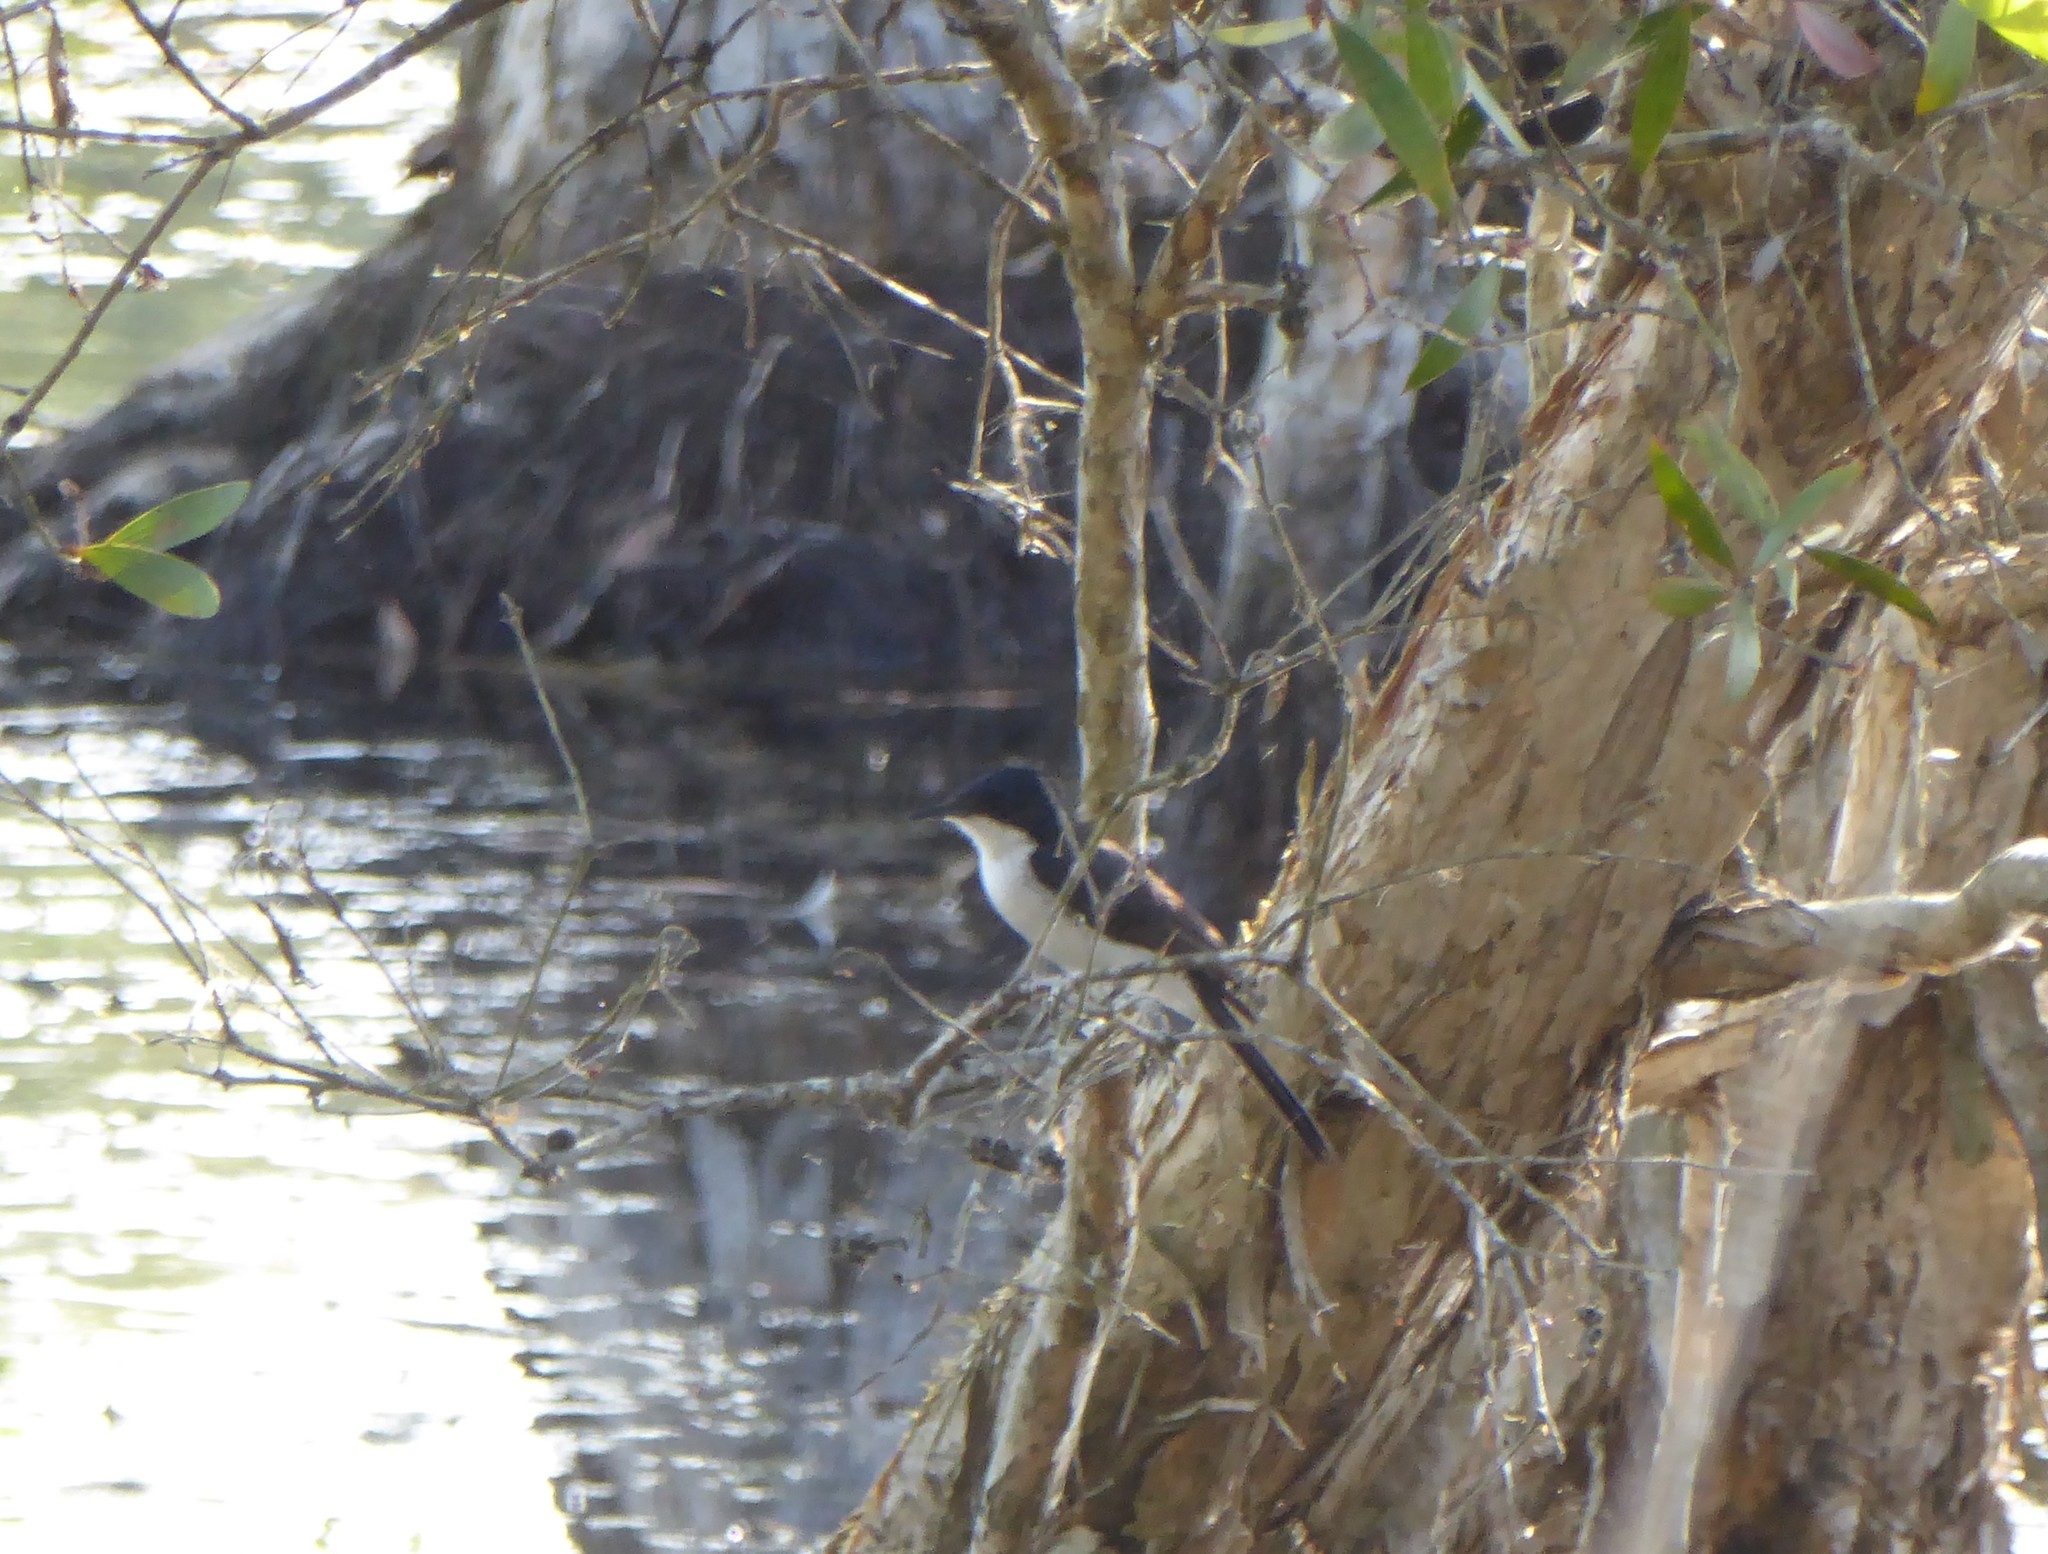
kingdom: Animalia
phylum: Chordata
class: Aves
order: Passeriformes
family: Monarchidae
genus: Myiagra
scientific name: Myiagra inquieta
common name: Restless flycatcher
